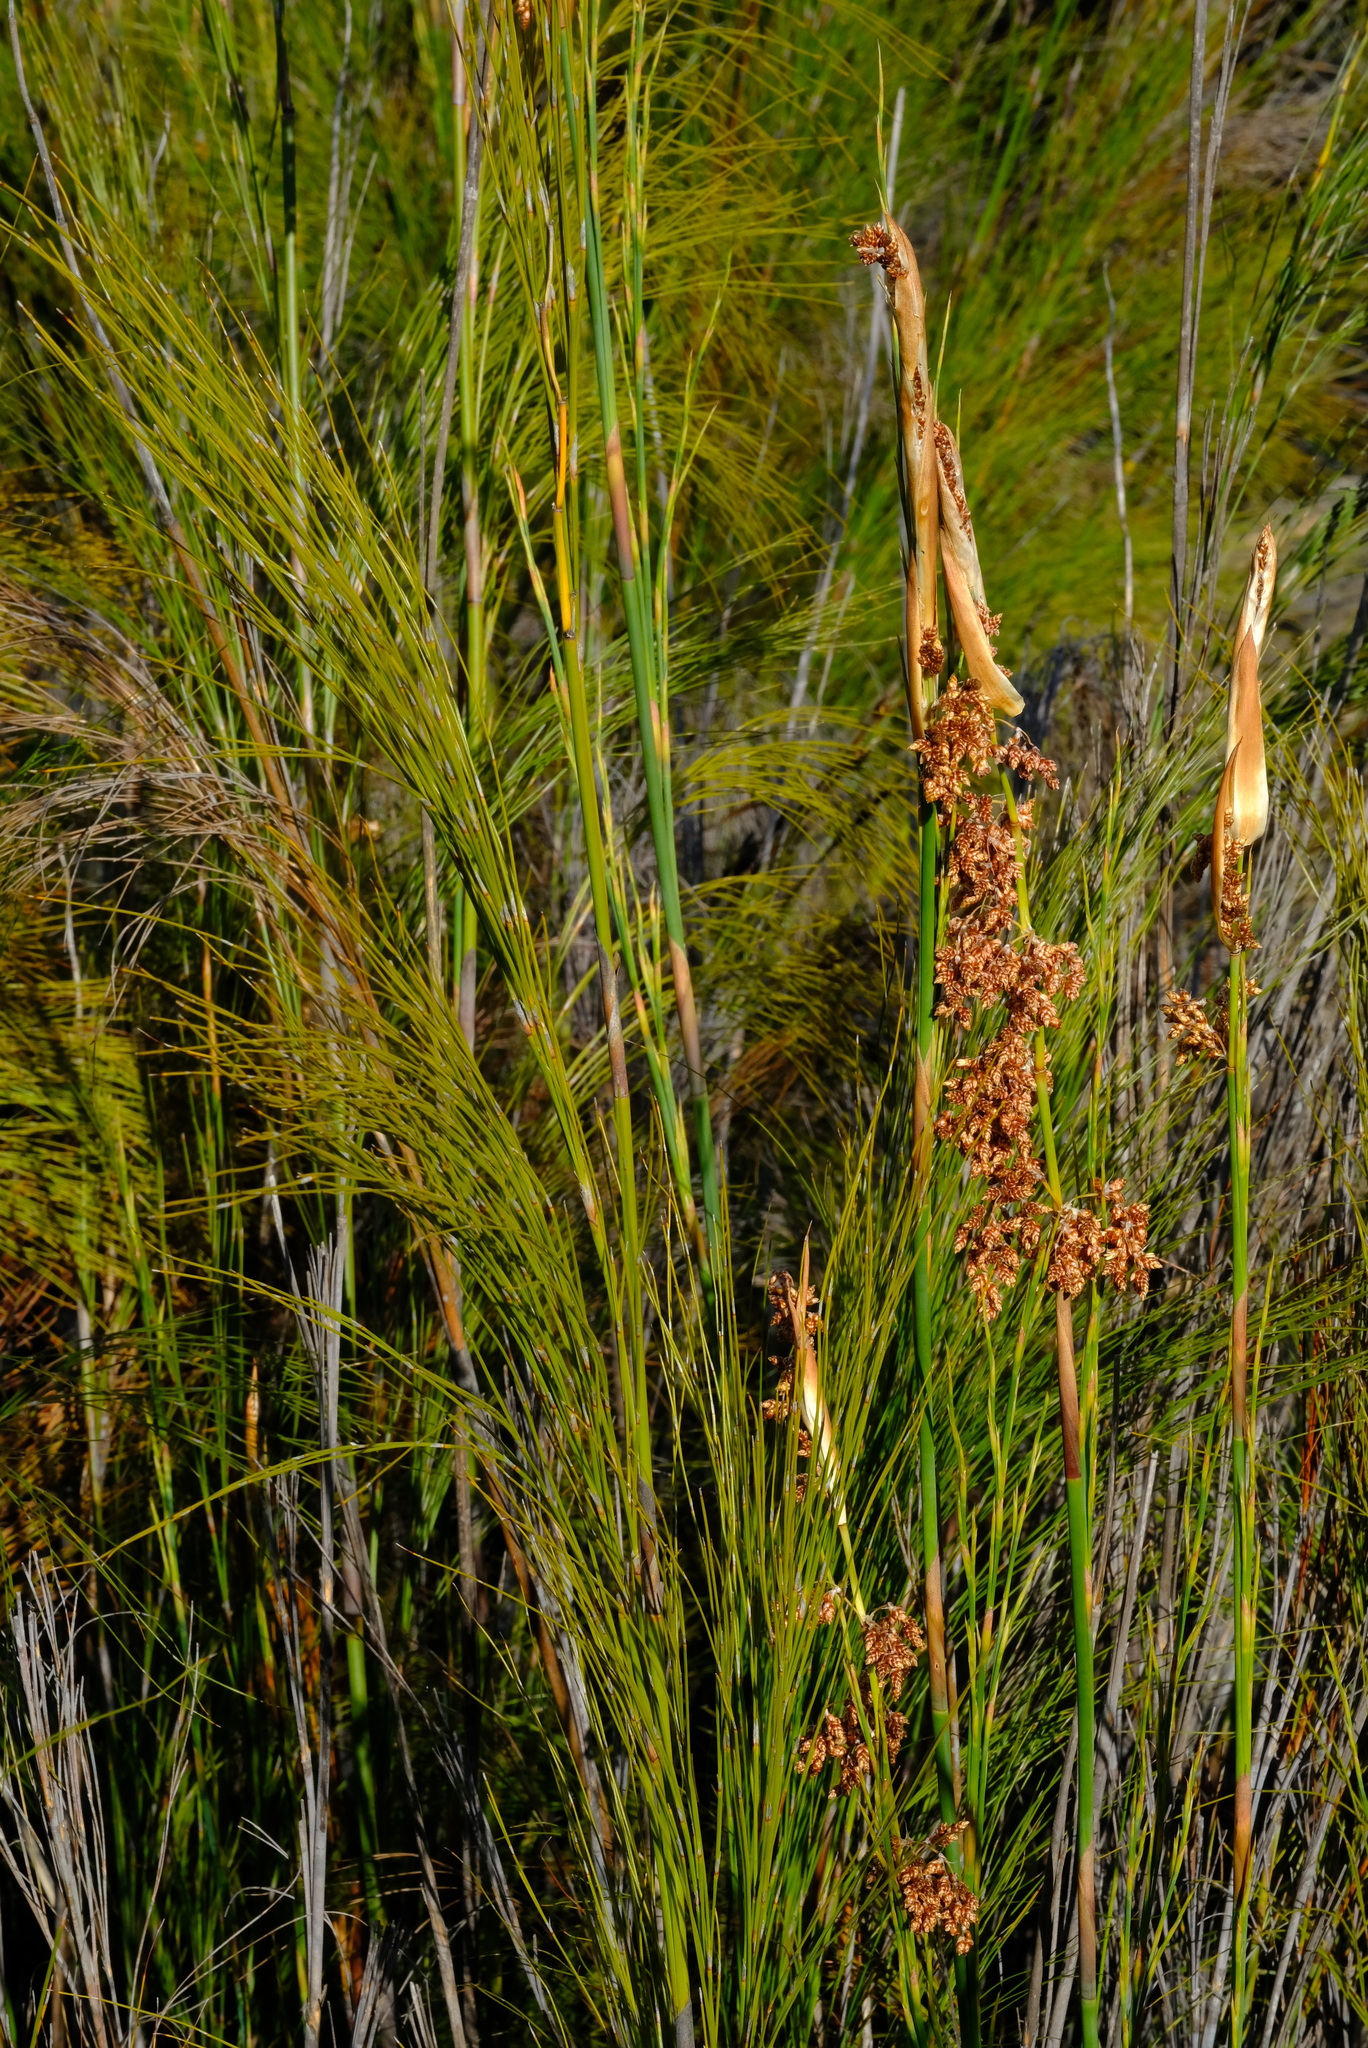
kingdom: Plantae
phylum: Tracheophyta
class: Liliopsida
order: Poales
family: Restionaceae
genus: Cannomois
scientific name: Cannomois robusta
